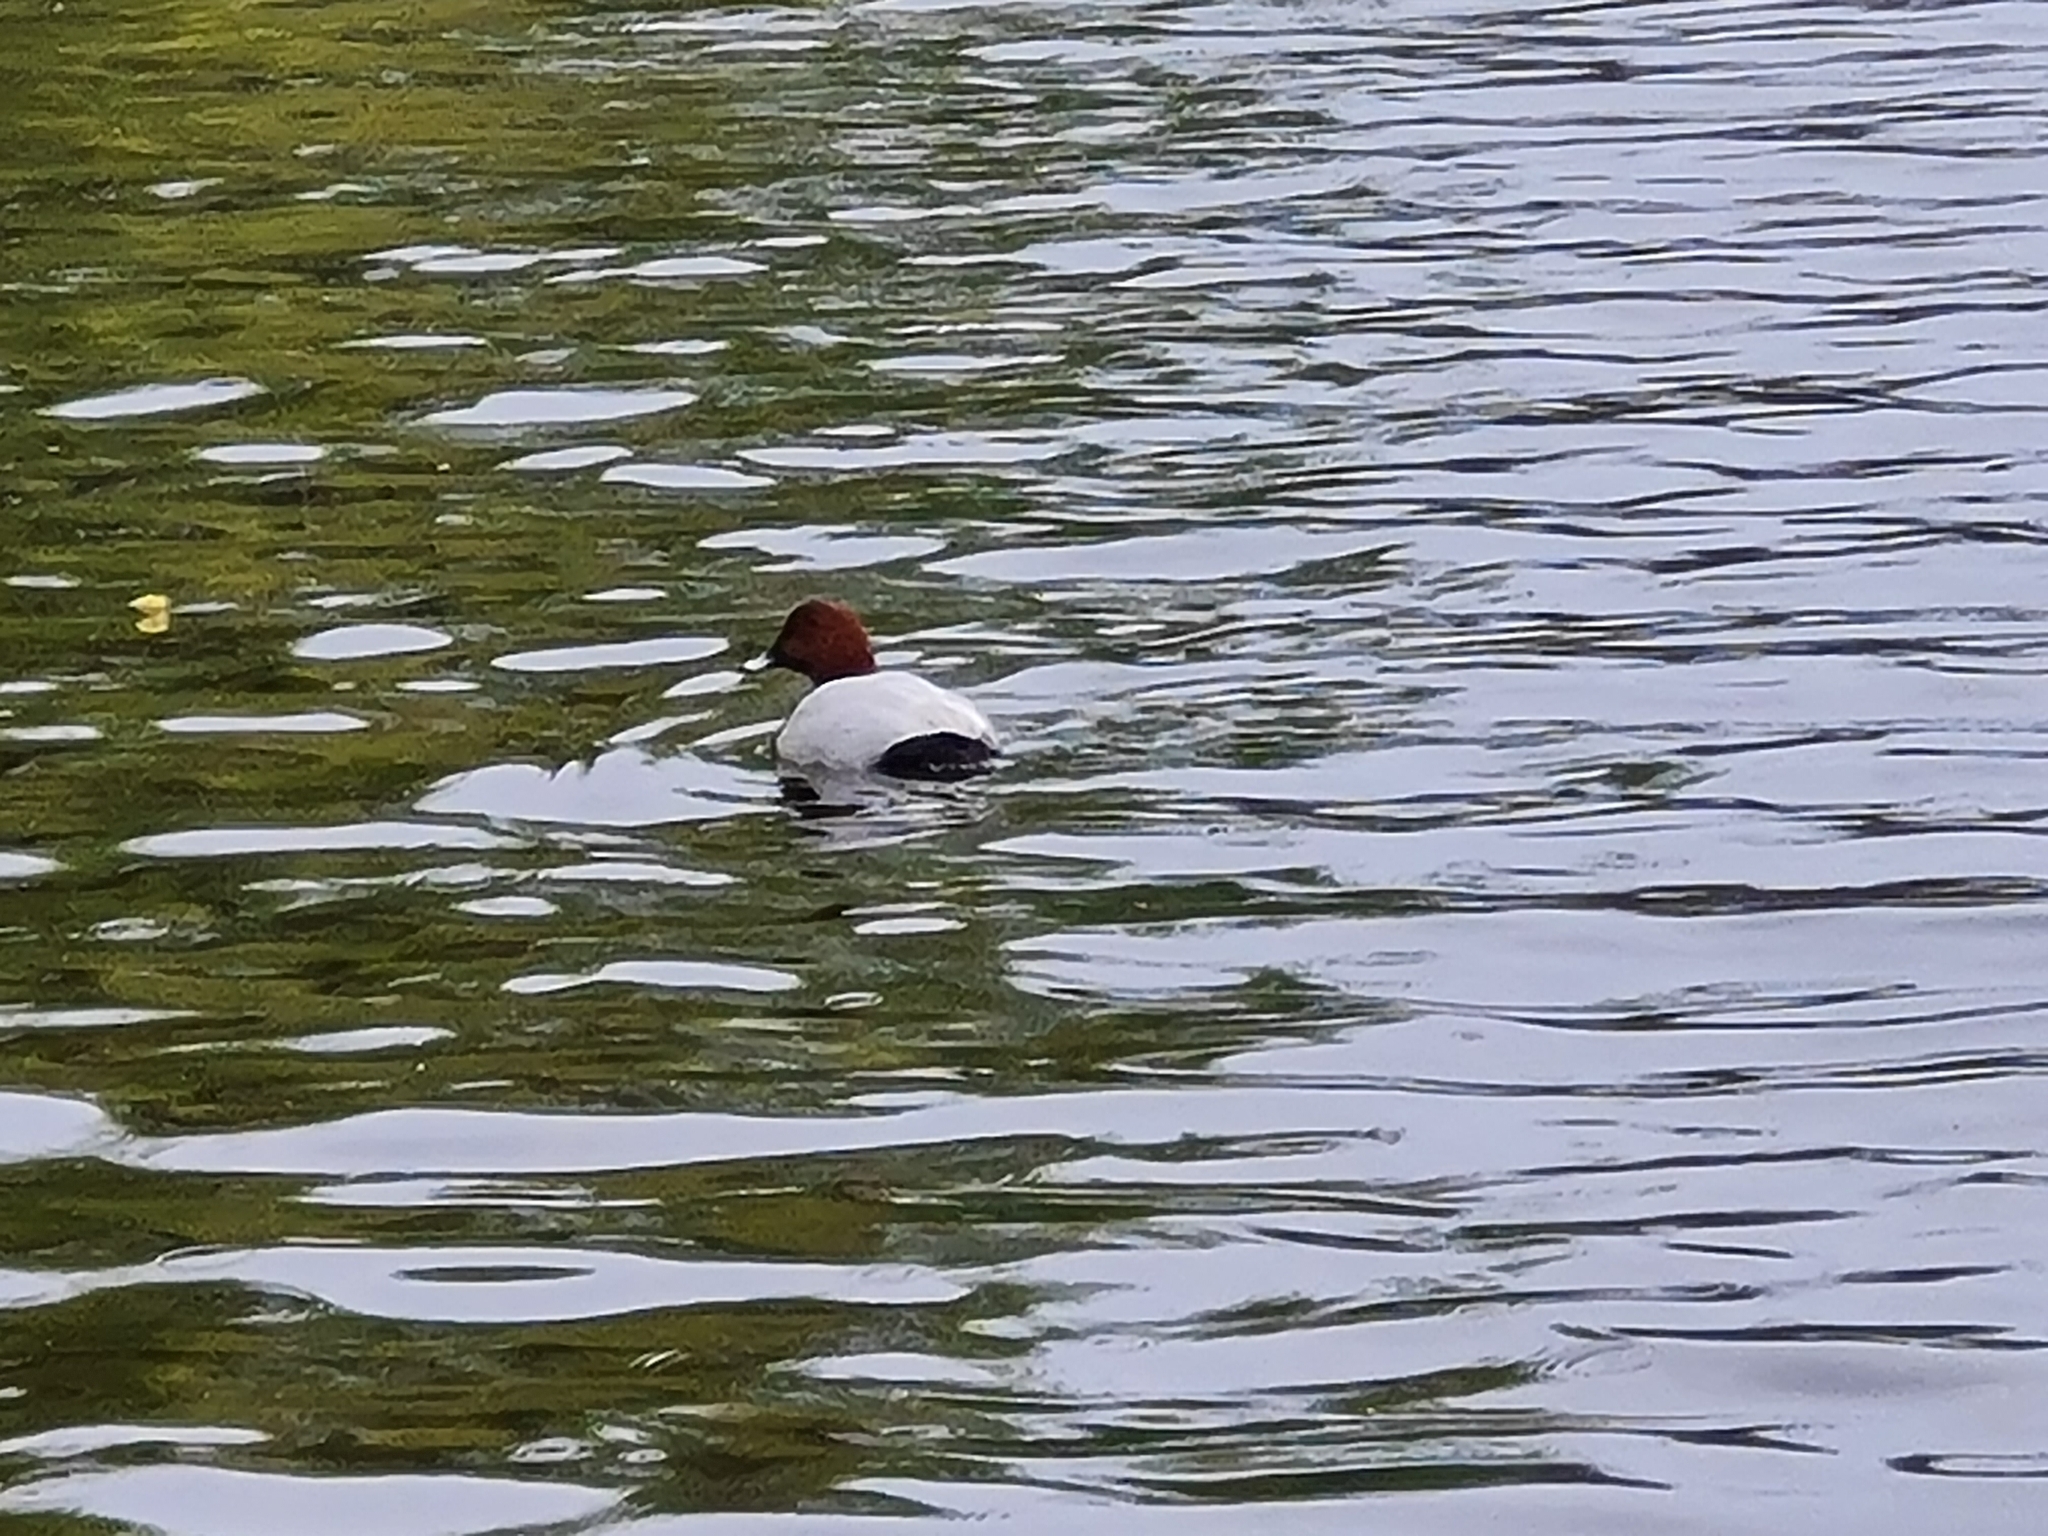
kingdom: Animalia
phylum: Chordata
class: Aves
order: Anseriformes
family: Anatidae
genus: Aythya
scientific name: Aythya ferina
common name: Common pochard
